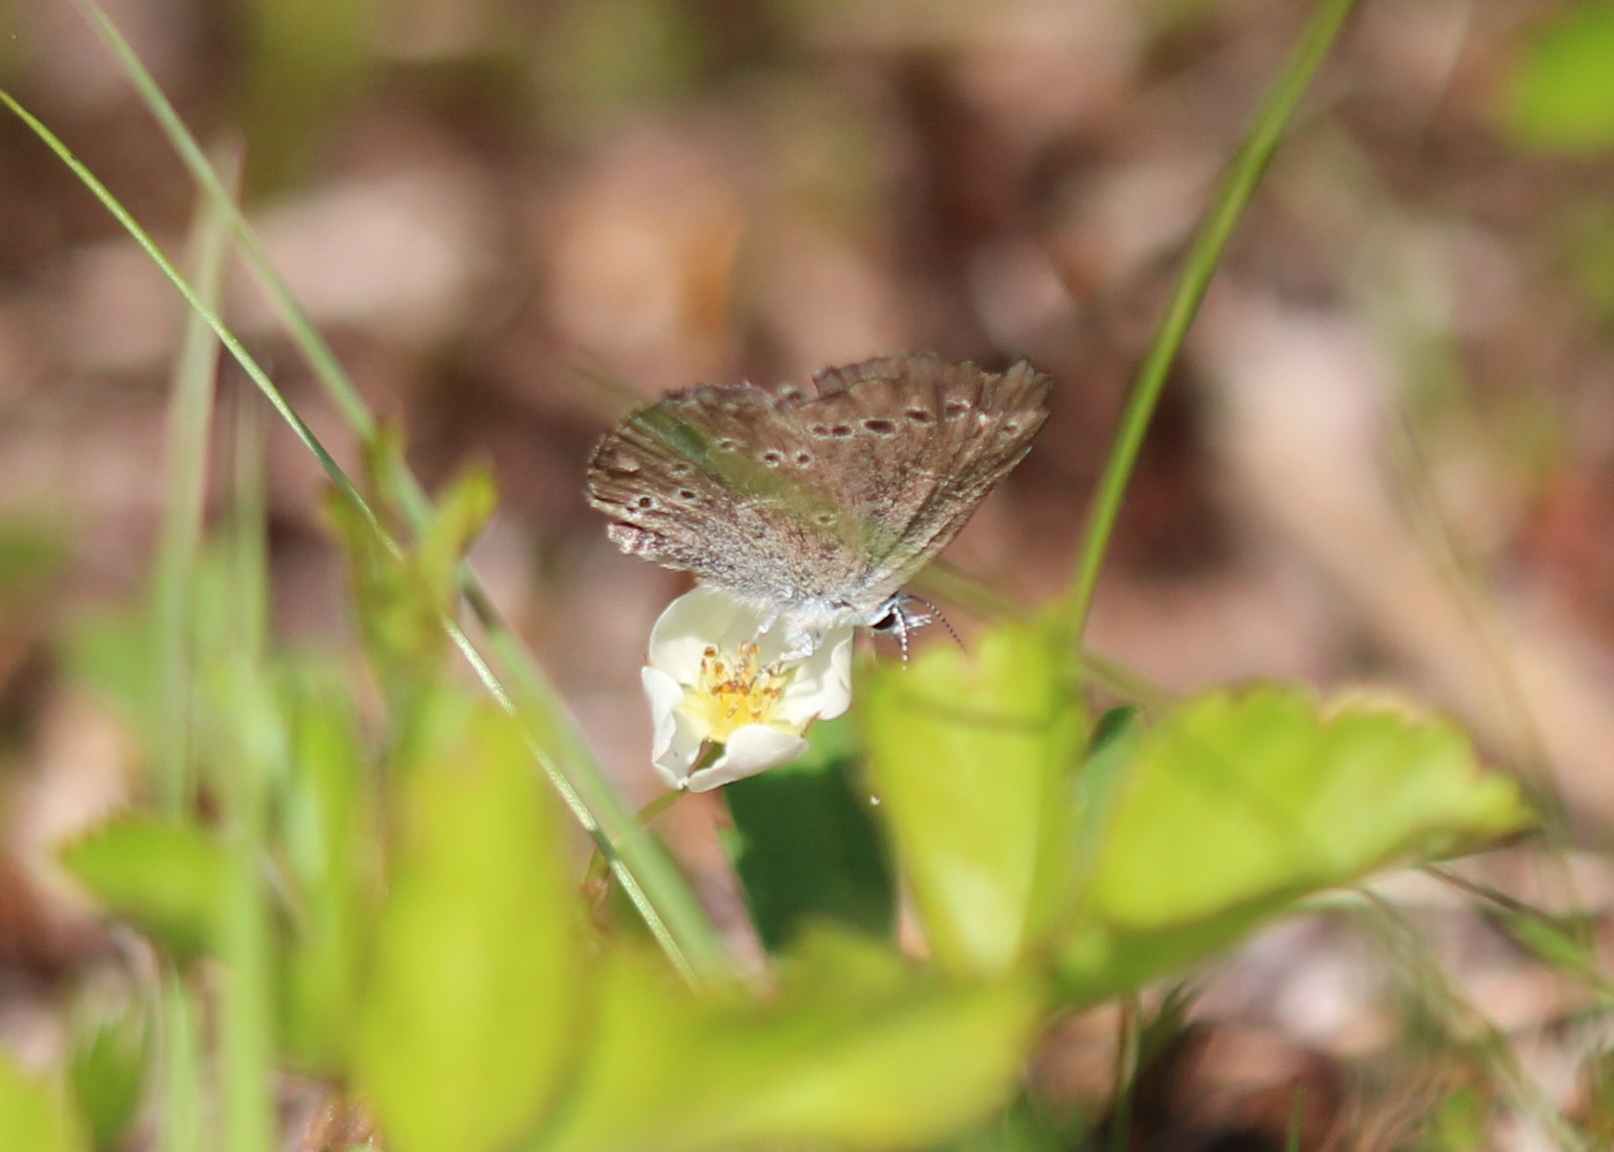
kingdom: Animalia
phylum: Arthropoda
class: Insecta
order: Lepidoptera
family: Lycaenidae
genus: Glaucopsyche
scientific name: Glaucopsyche lygdamus
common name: Silvery blue
